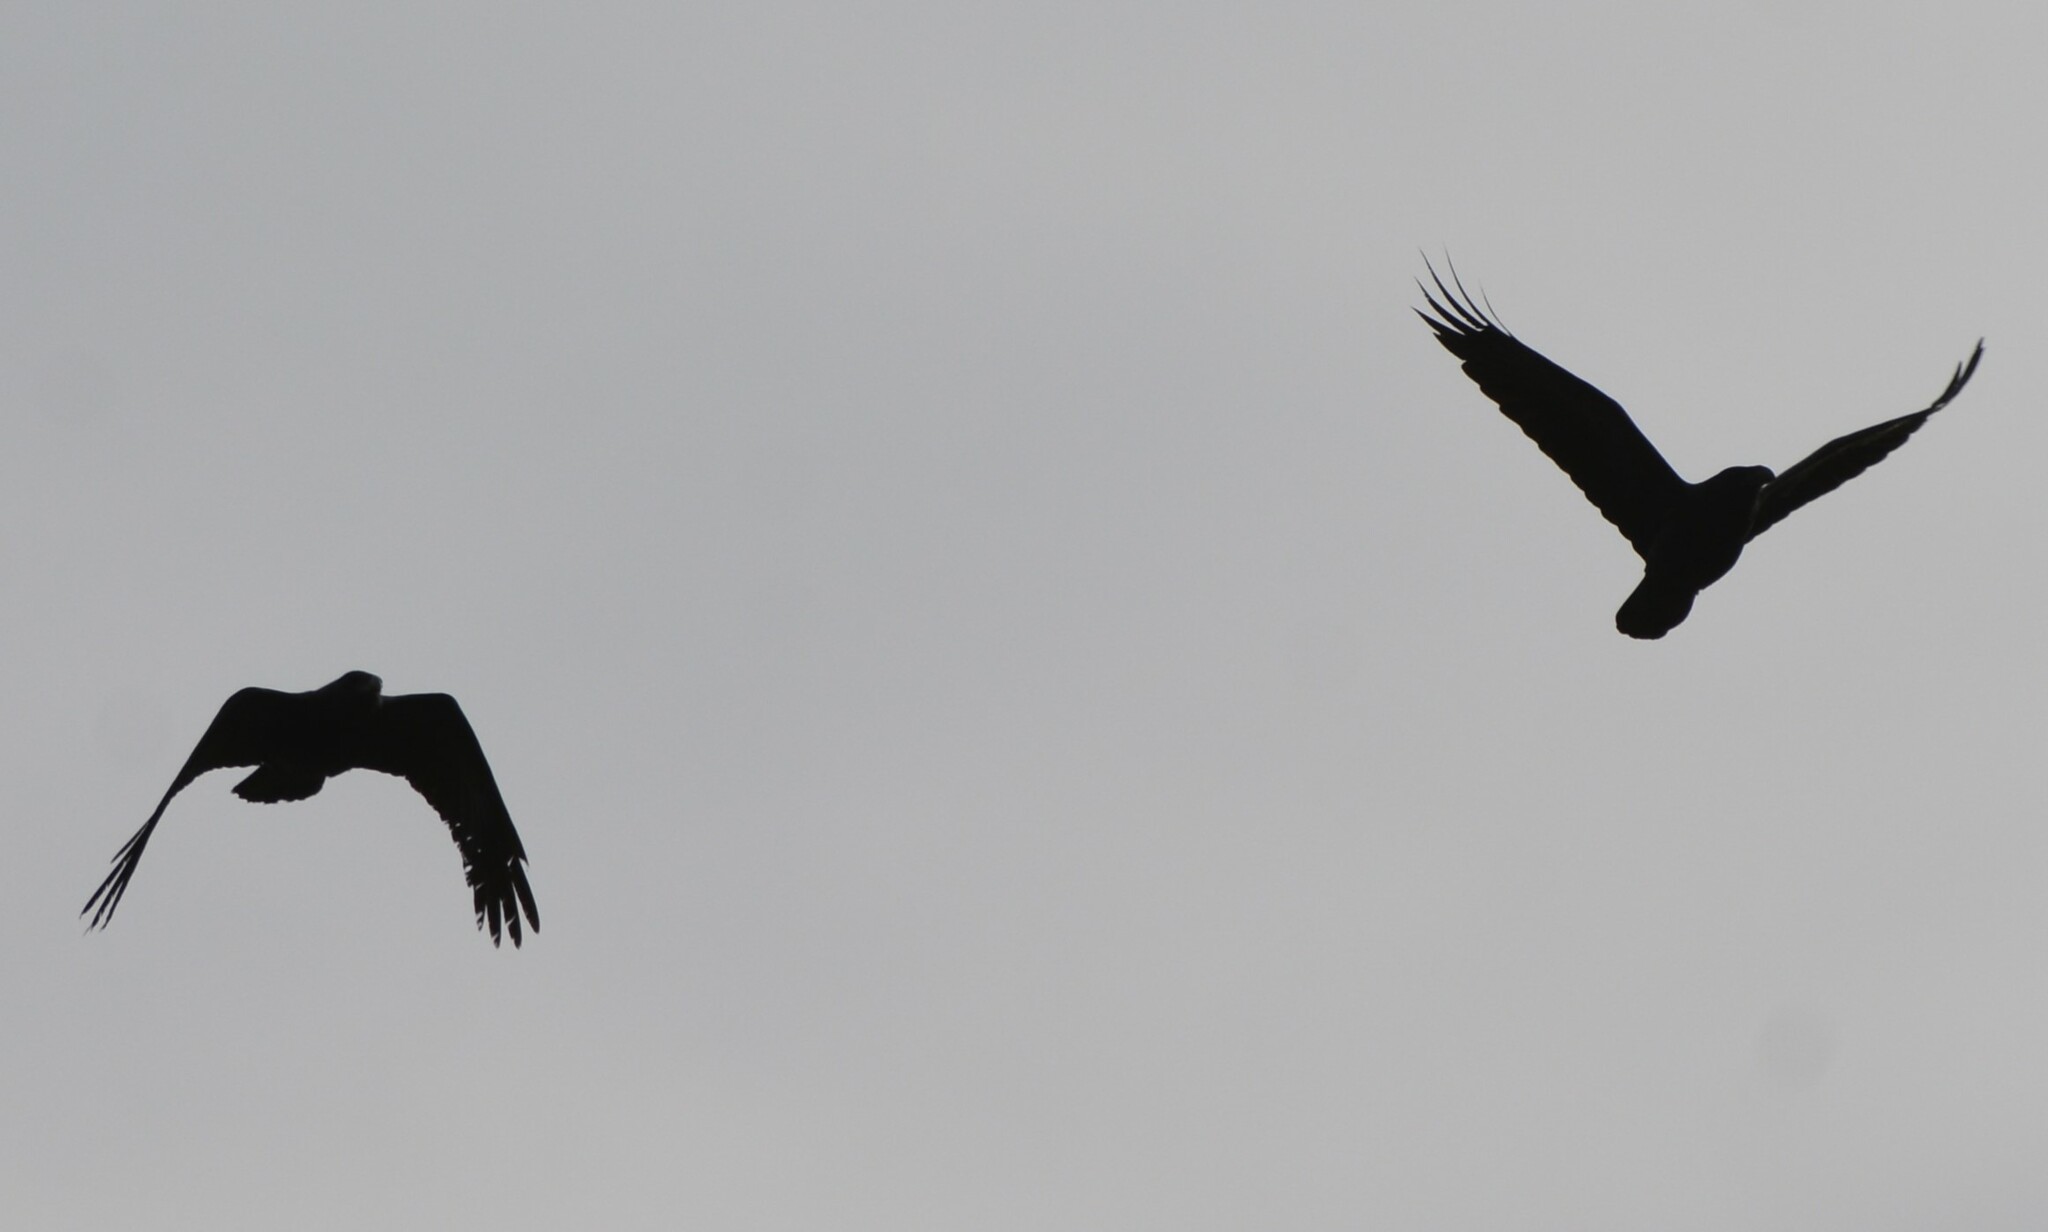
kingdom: Animalia
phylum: Chordata
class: Aves
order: Passeriformes
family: Corvidae
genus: Corvus
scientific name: Corvus corax
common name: Common raven
